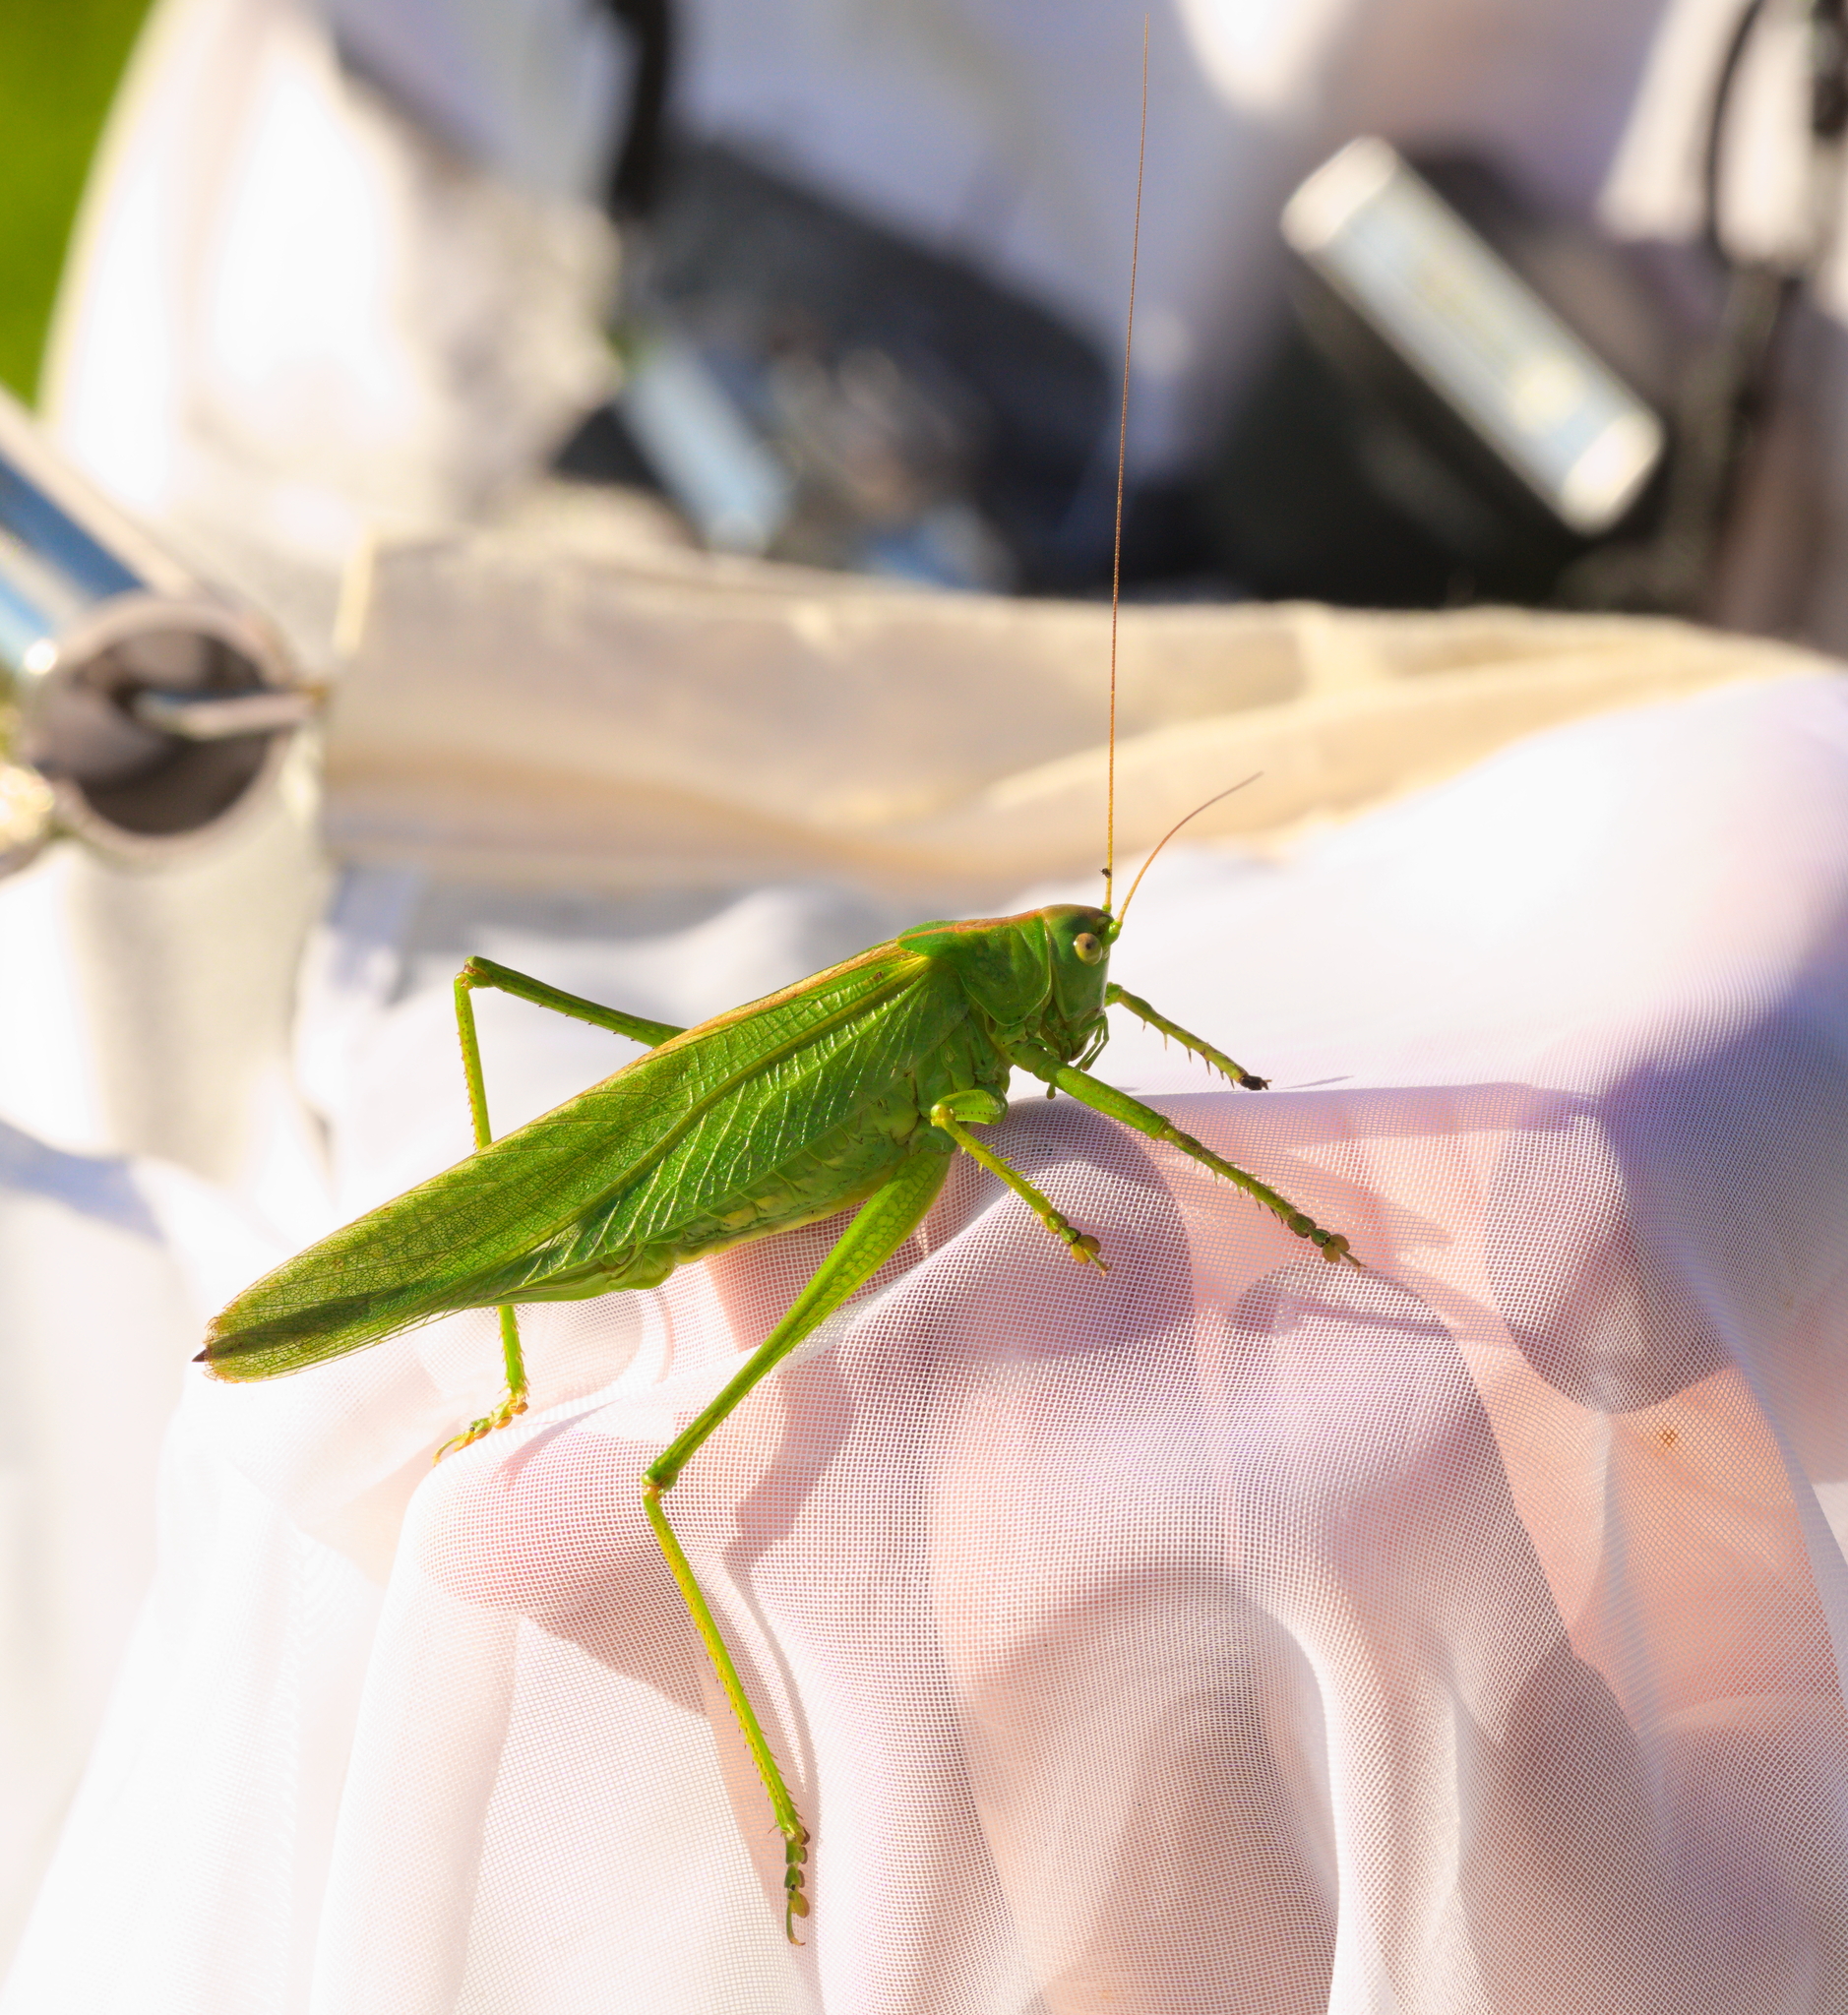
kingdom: Animalia
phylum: Arthropoda
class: Insecta
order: Orthoptera
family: Tettigoniidae
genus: Tettigonia
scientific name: Tettigonia viridissima
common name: Great green bush-cricket
